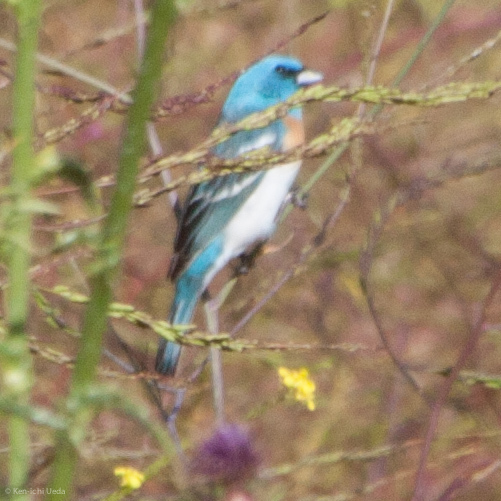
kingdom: Animalia
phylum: Chordata
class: Aves
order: Passeriformes
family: Cardinalidae
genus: Passerina
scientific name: Passerina amoena
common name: Lazuli bunting
